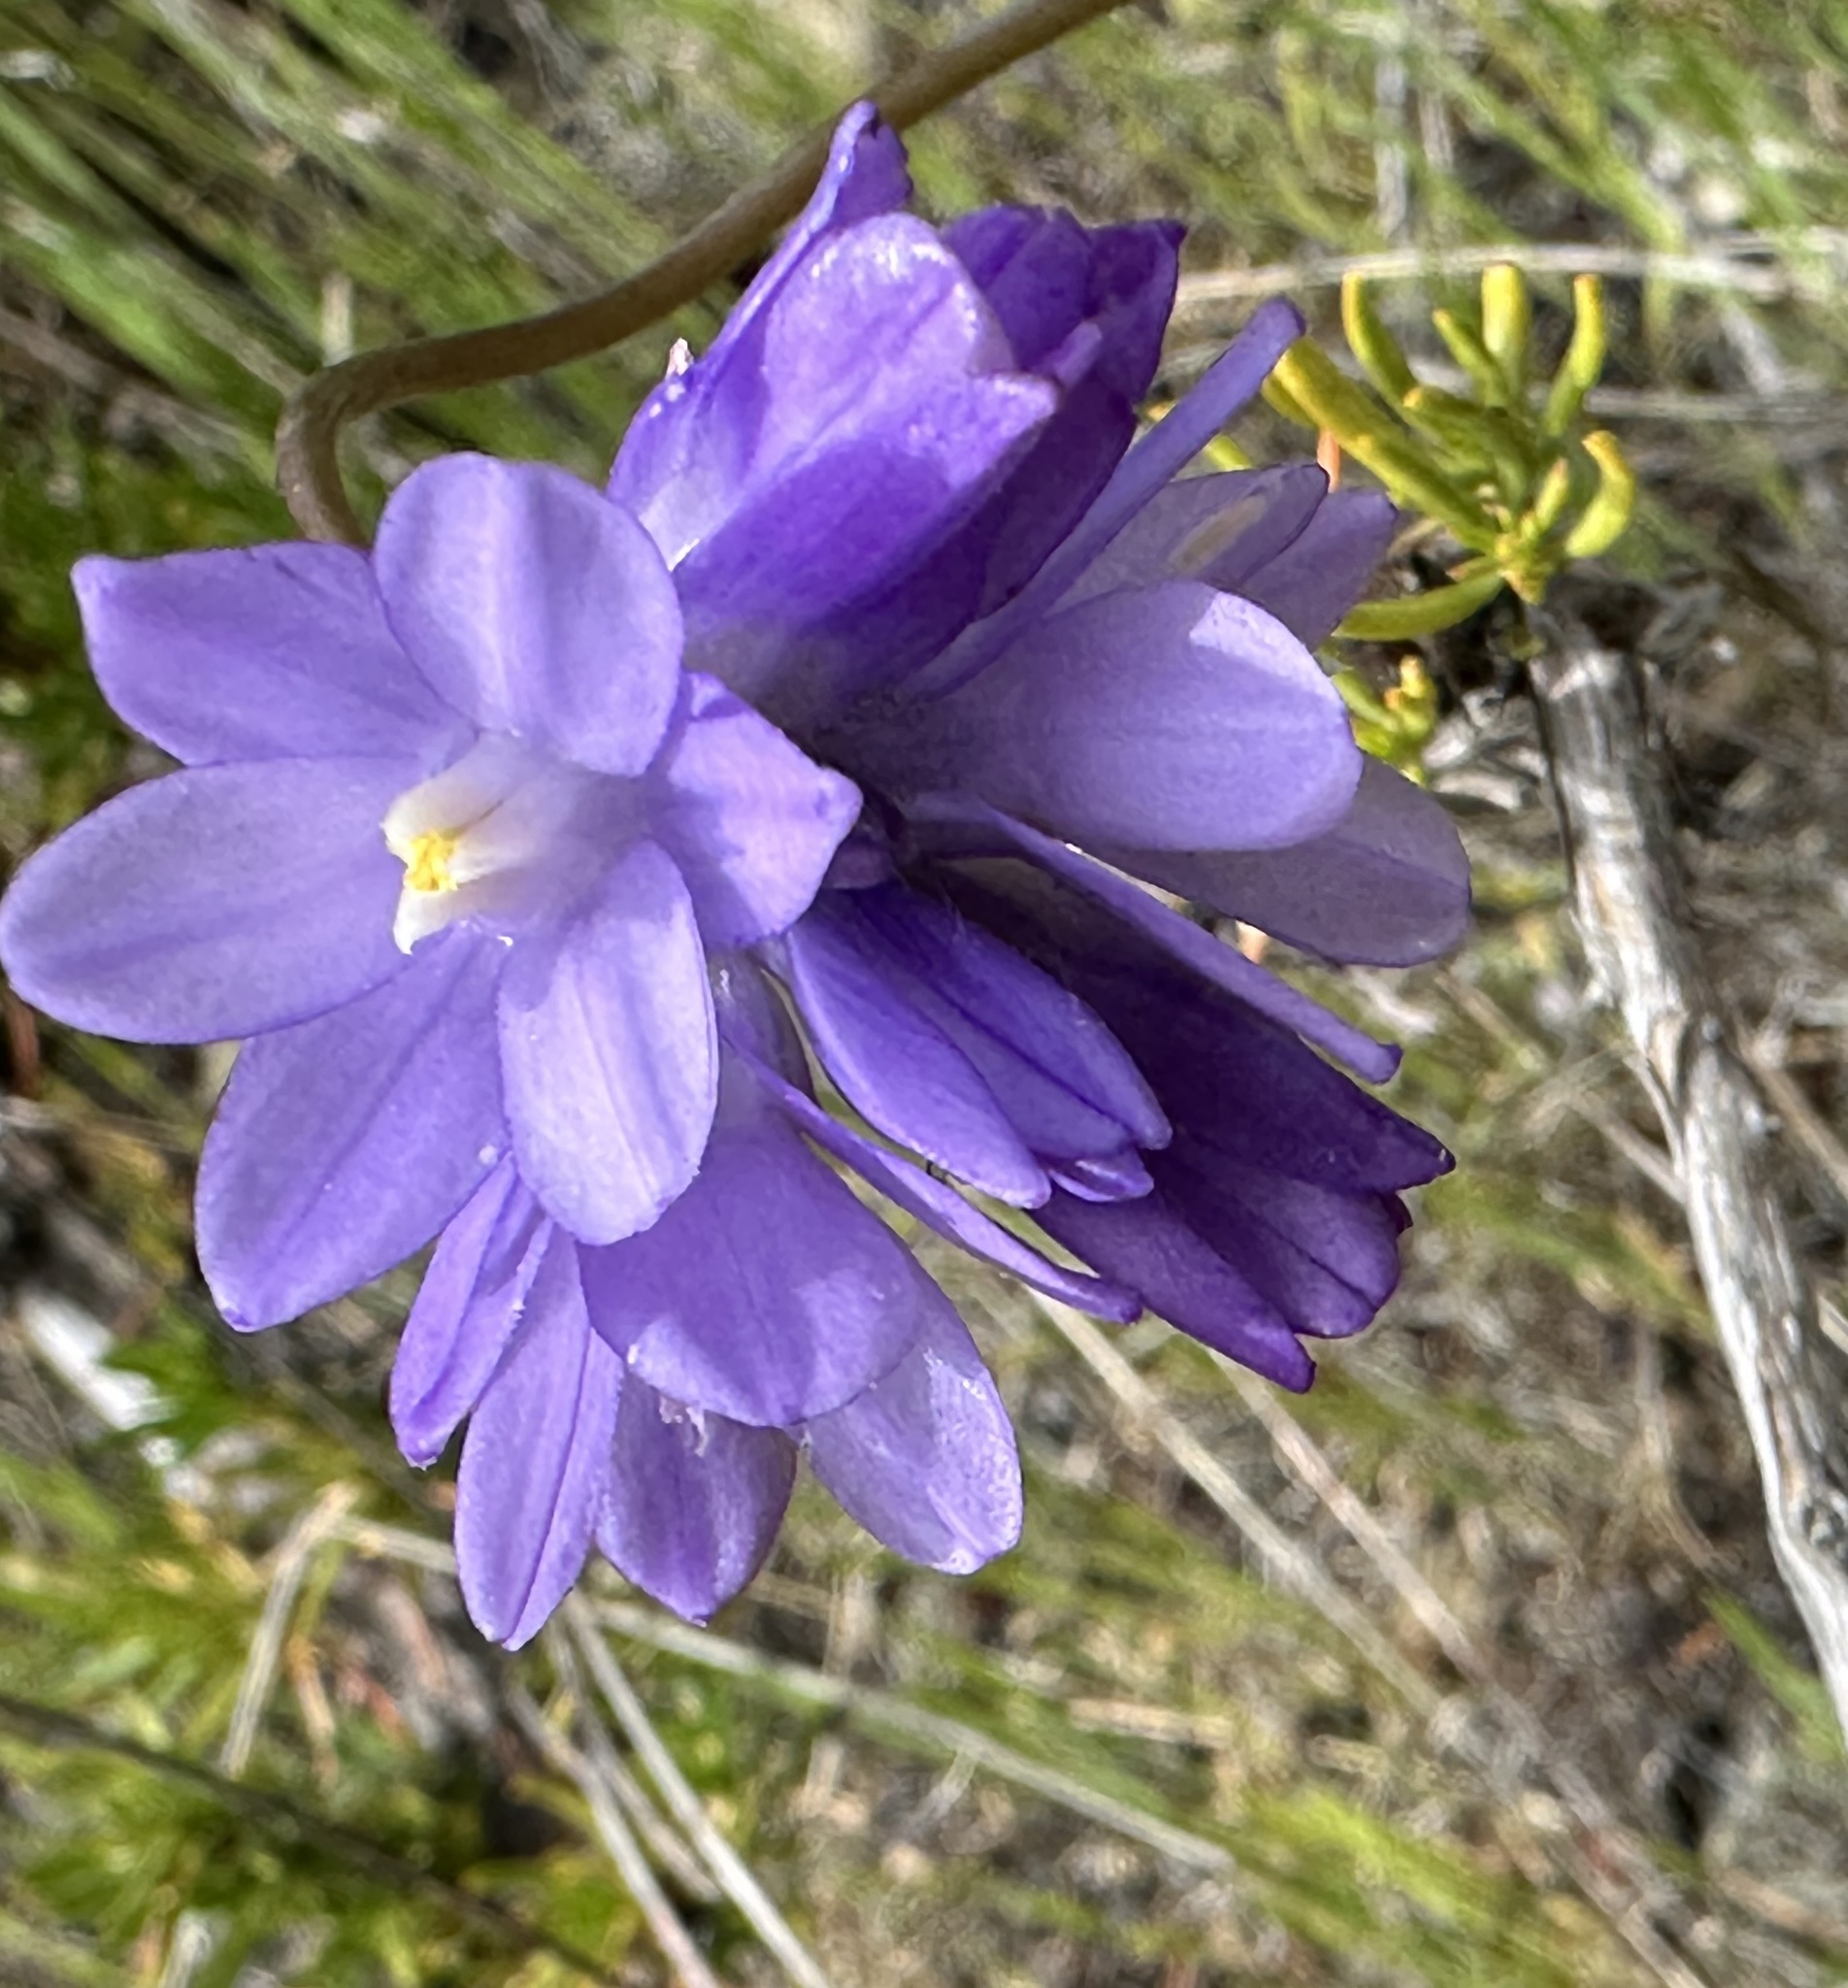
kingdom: Plantae
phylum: Tracheophyta
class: Liliopsida
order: Asparagales
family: Asparagaceae
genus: Dipterostemon
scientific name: Dipterostemon capitatus
